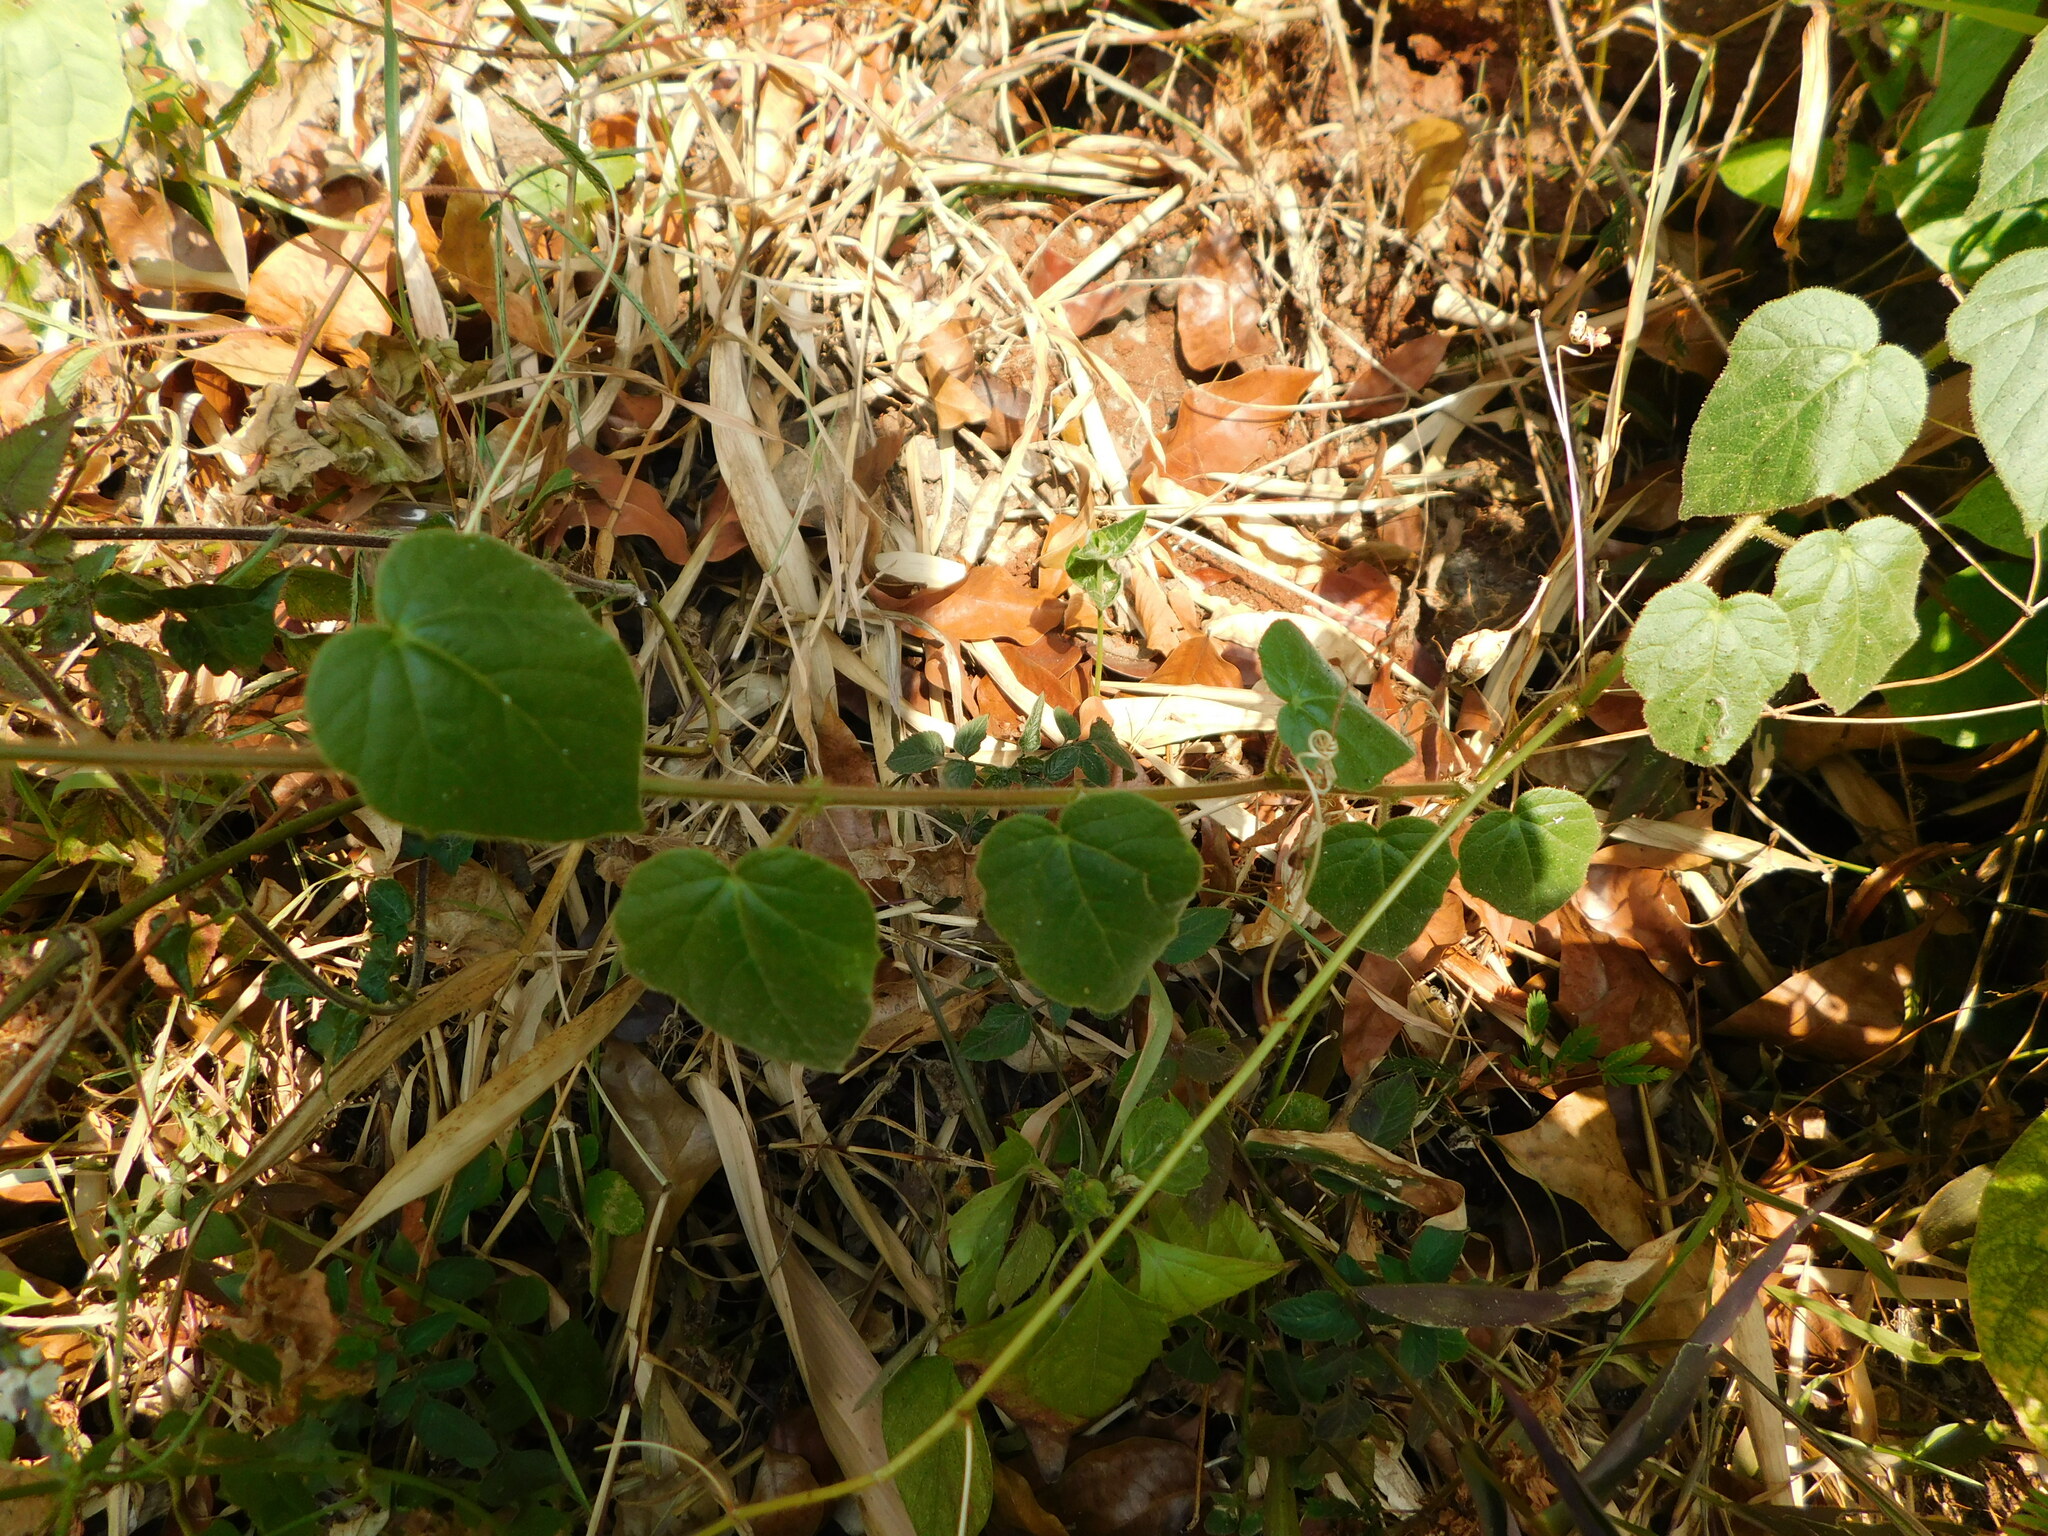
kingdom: Plantae
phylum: Tracheophyta
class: Magnoliopsida
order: Malpighiales
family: Passifloraceae
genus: Passiflora
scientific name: Passiflora vesicaria
